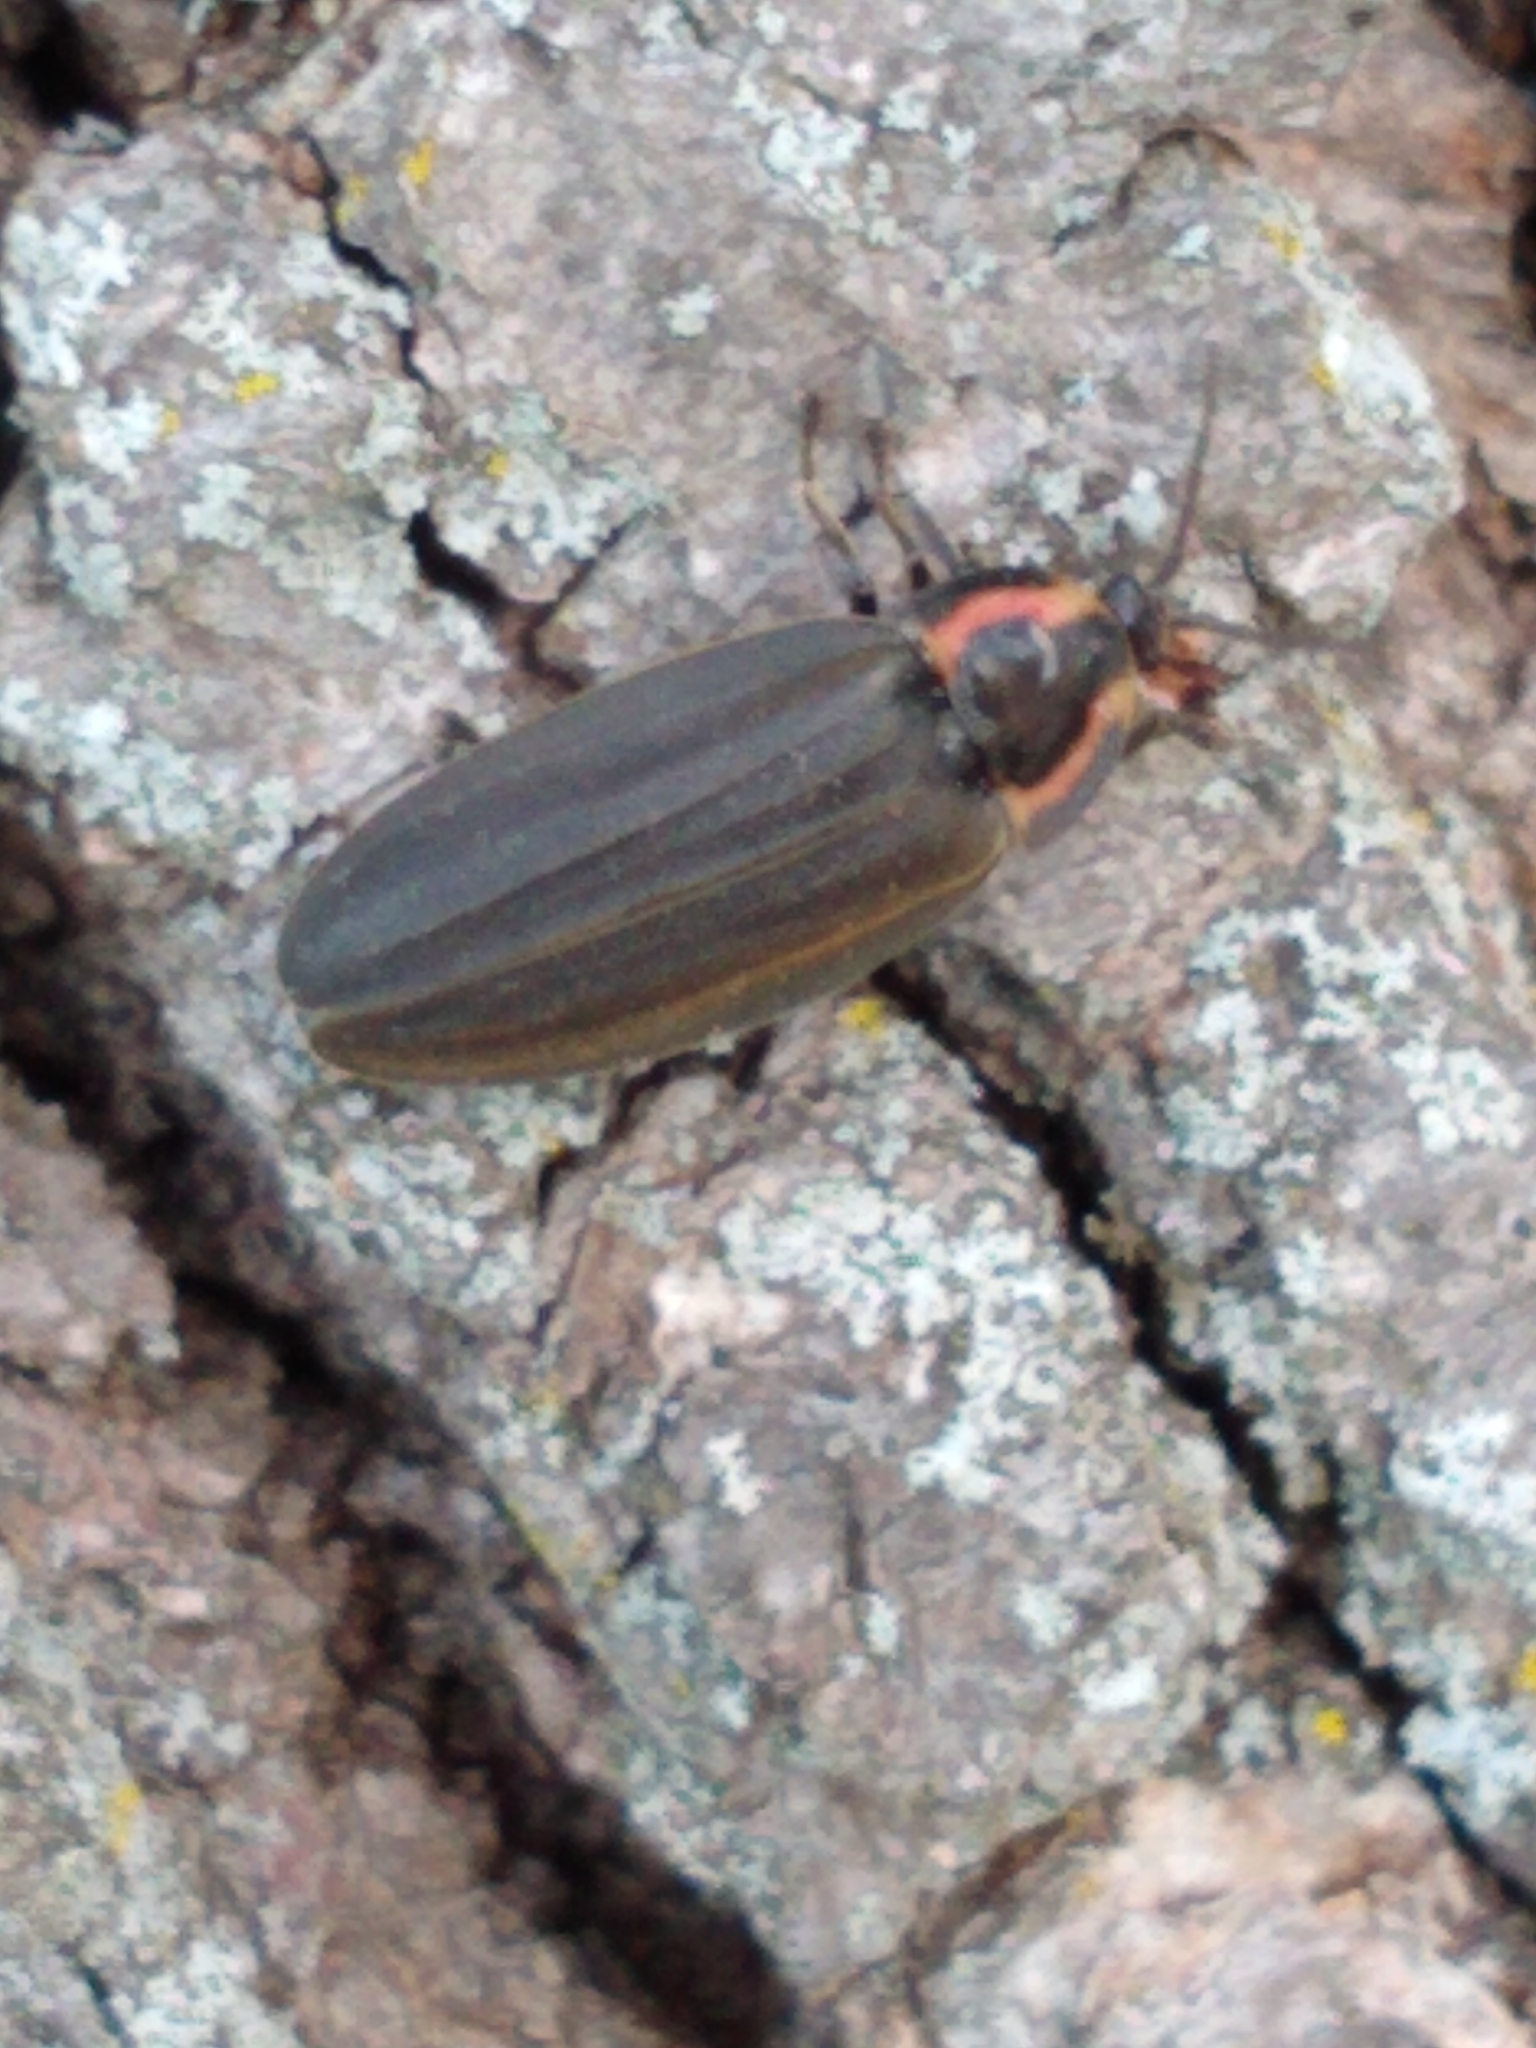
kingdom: Animalia
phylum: Arthropoda
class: Insecta
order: Coleoptera
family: Lampyridae
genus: Photinus
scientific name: Photinus corrusca
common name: Winter firefly
